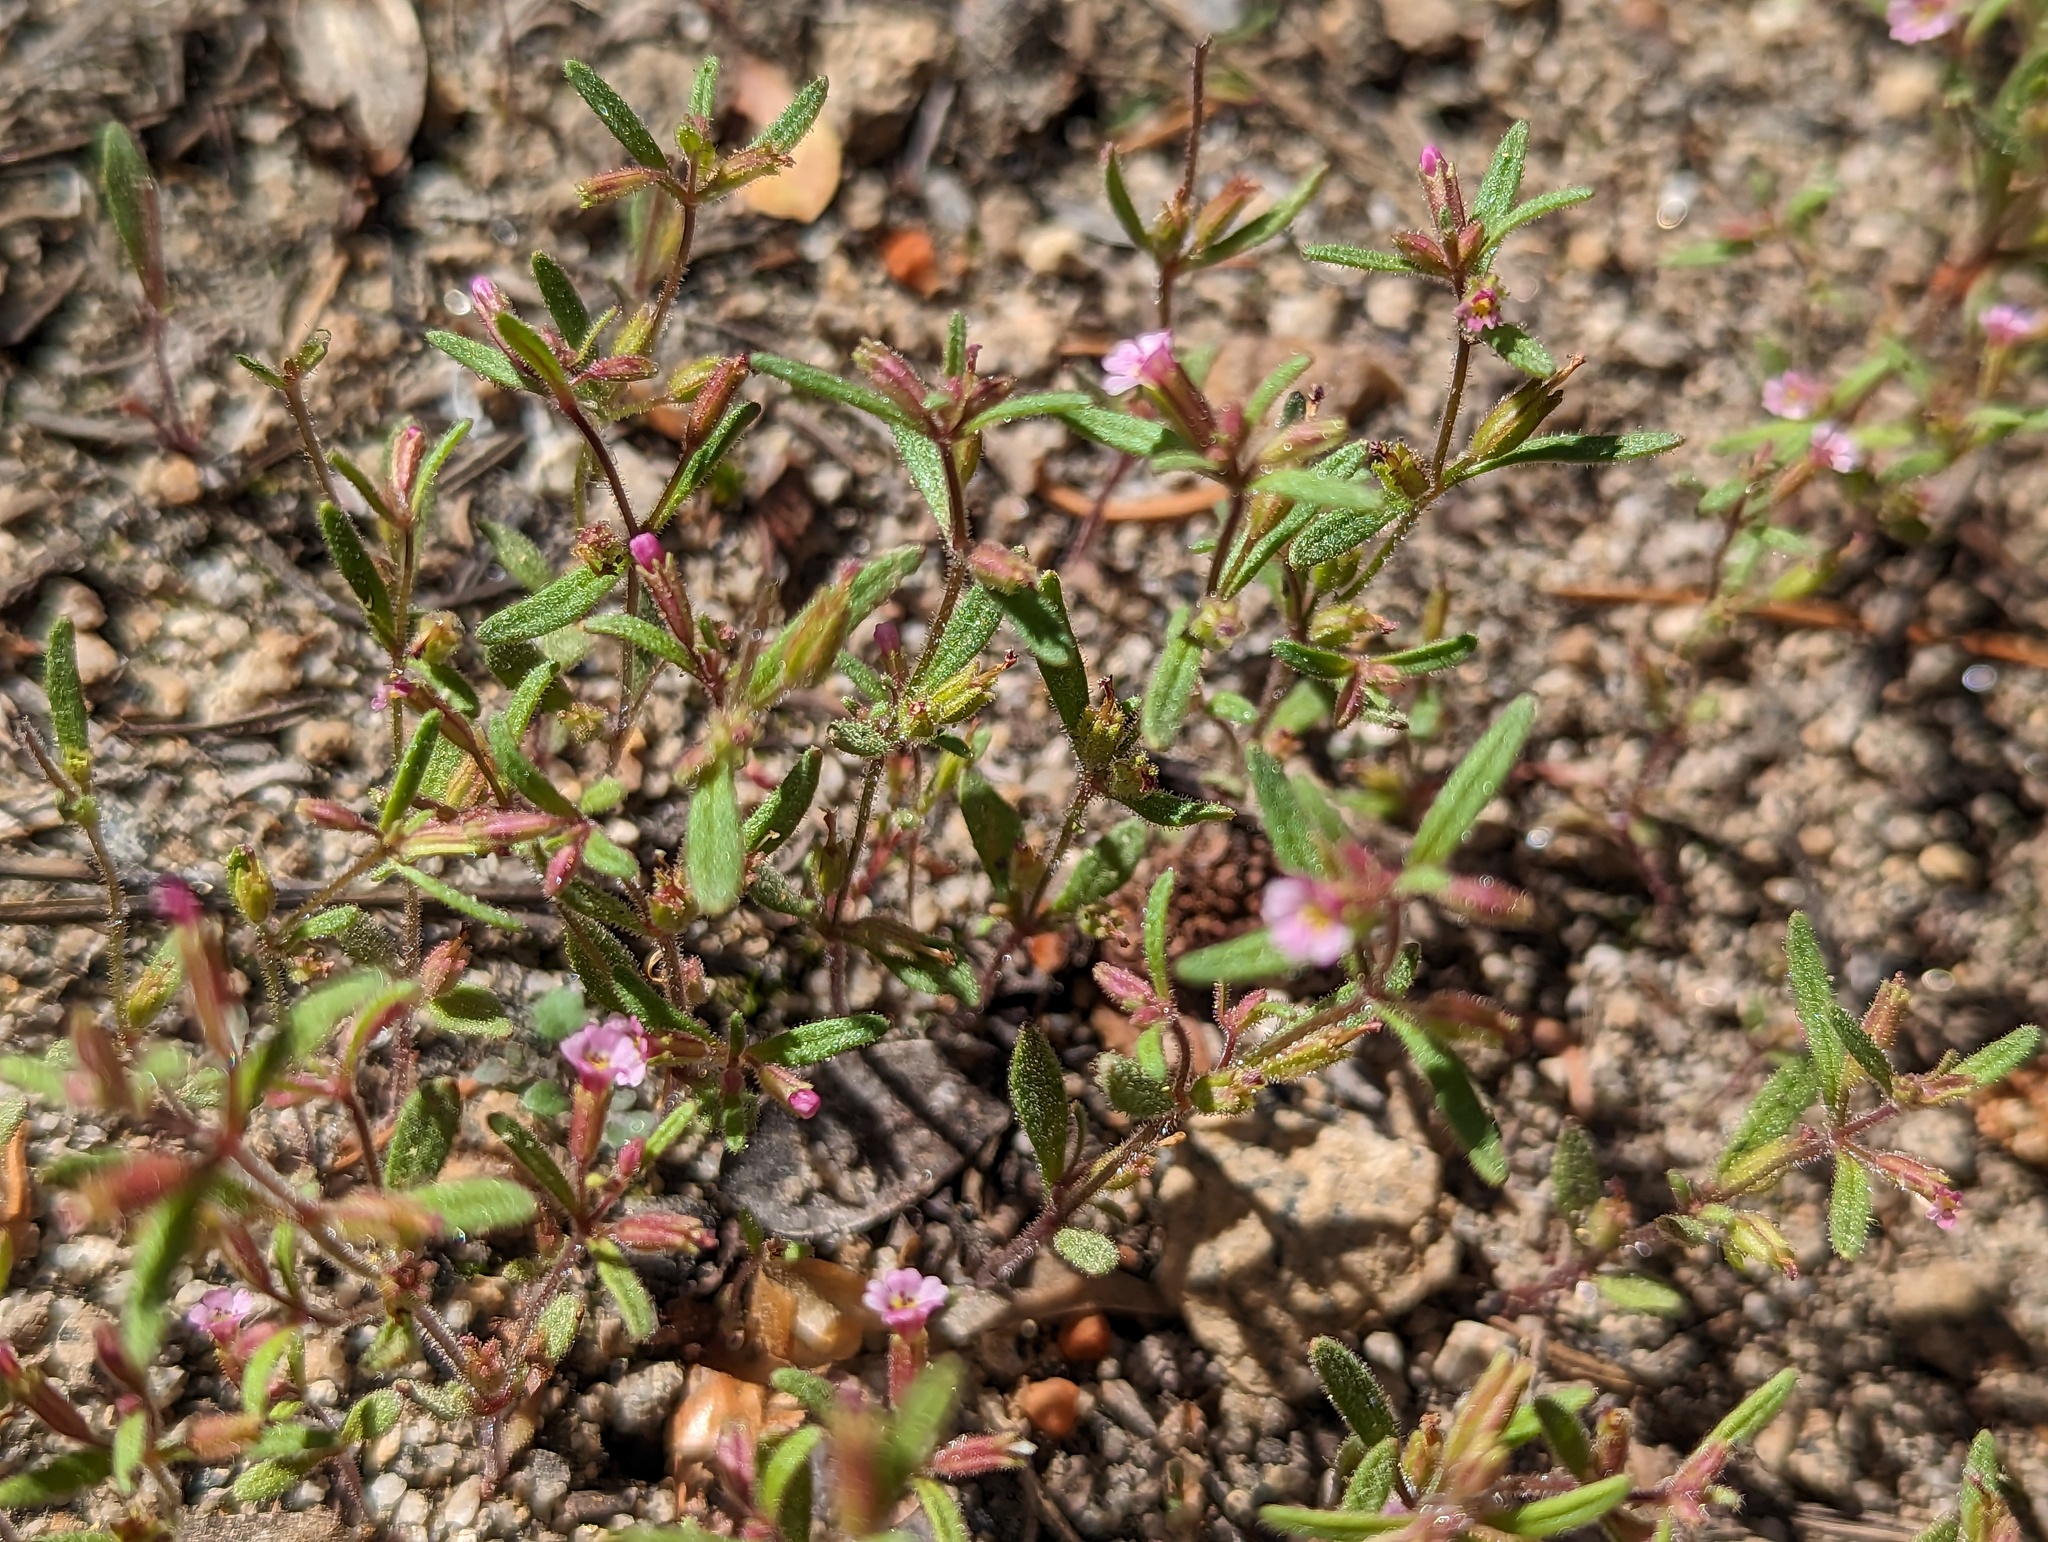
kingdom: Plantae
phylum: Tracheophyta
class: Magnoliopsida
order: Lamiales
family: Phrymaceae
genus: Erythranthe
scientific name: Erythranthe breweri
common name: Brewer's monkeyflower
